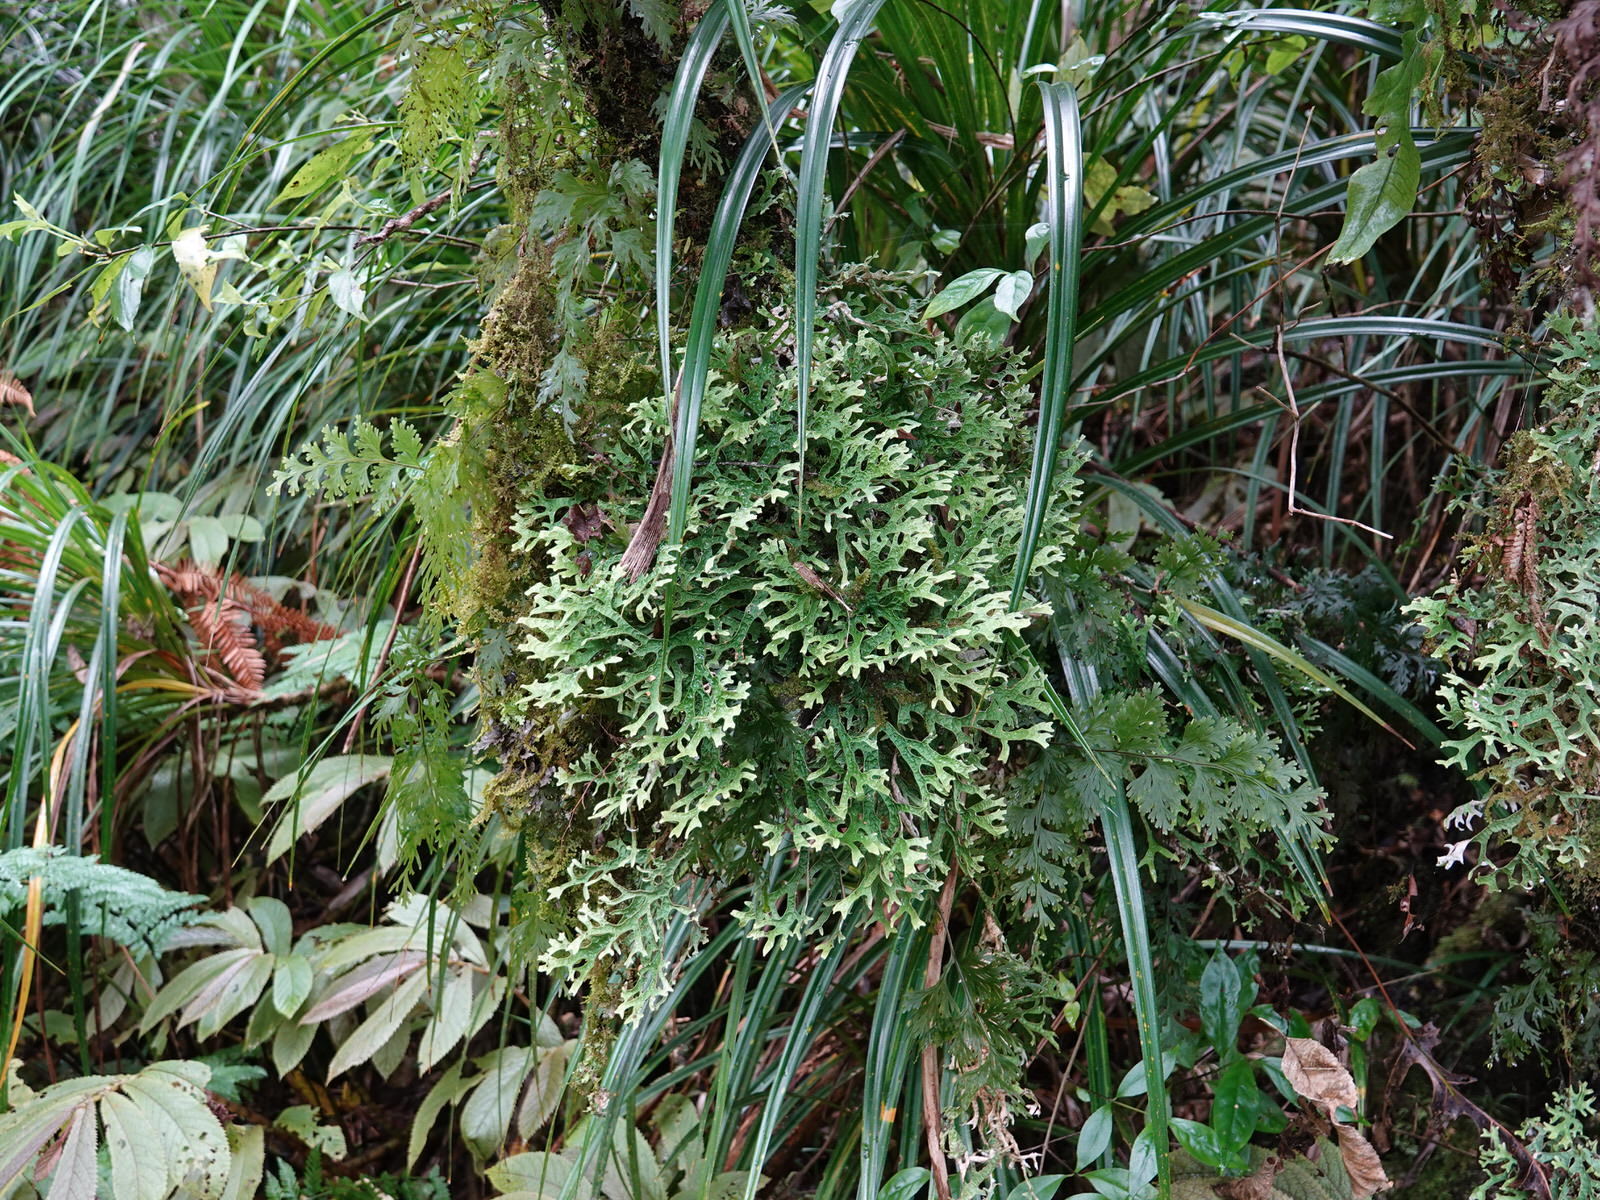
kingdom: Fungi
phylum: Ascomycota
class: Lecanoromycetes
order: Peltigerales
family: Lobariaceae
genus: Pseudocyphellaria
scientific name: Pseudocyphellaria rufovirescens
